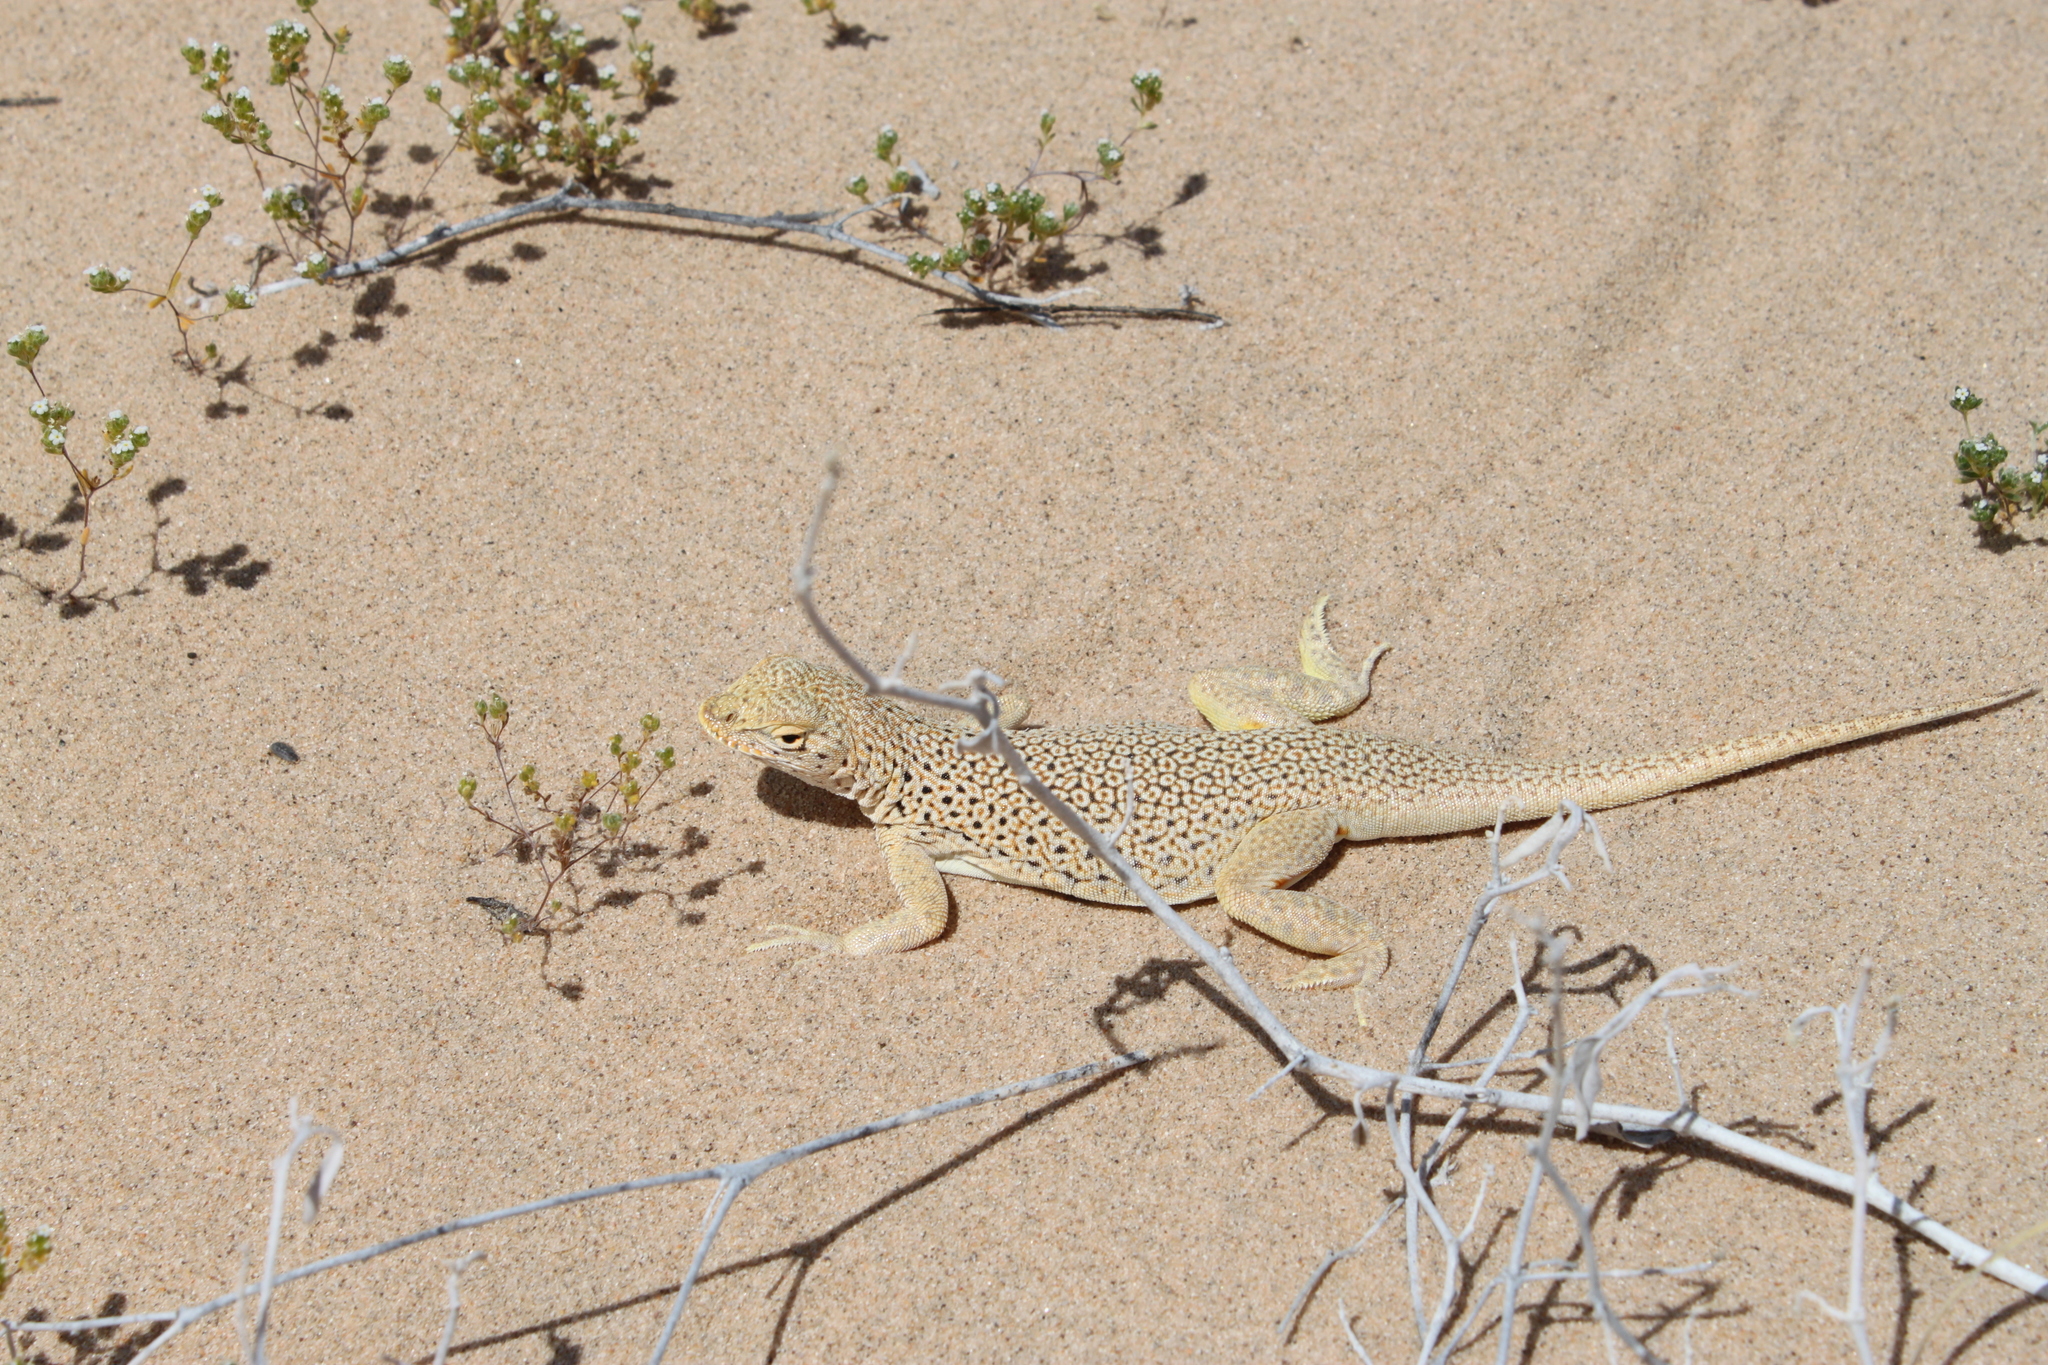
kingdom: Animalia
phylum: Chordata
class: Squamata
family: Phrynosomatidae
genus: Uma
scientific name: Uma scoparia
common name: Mojave fringe-toed lizard
